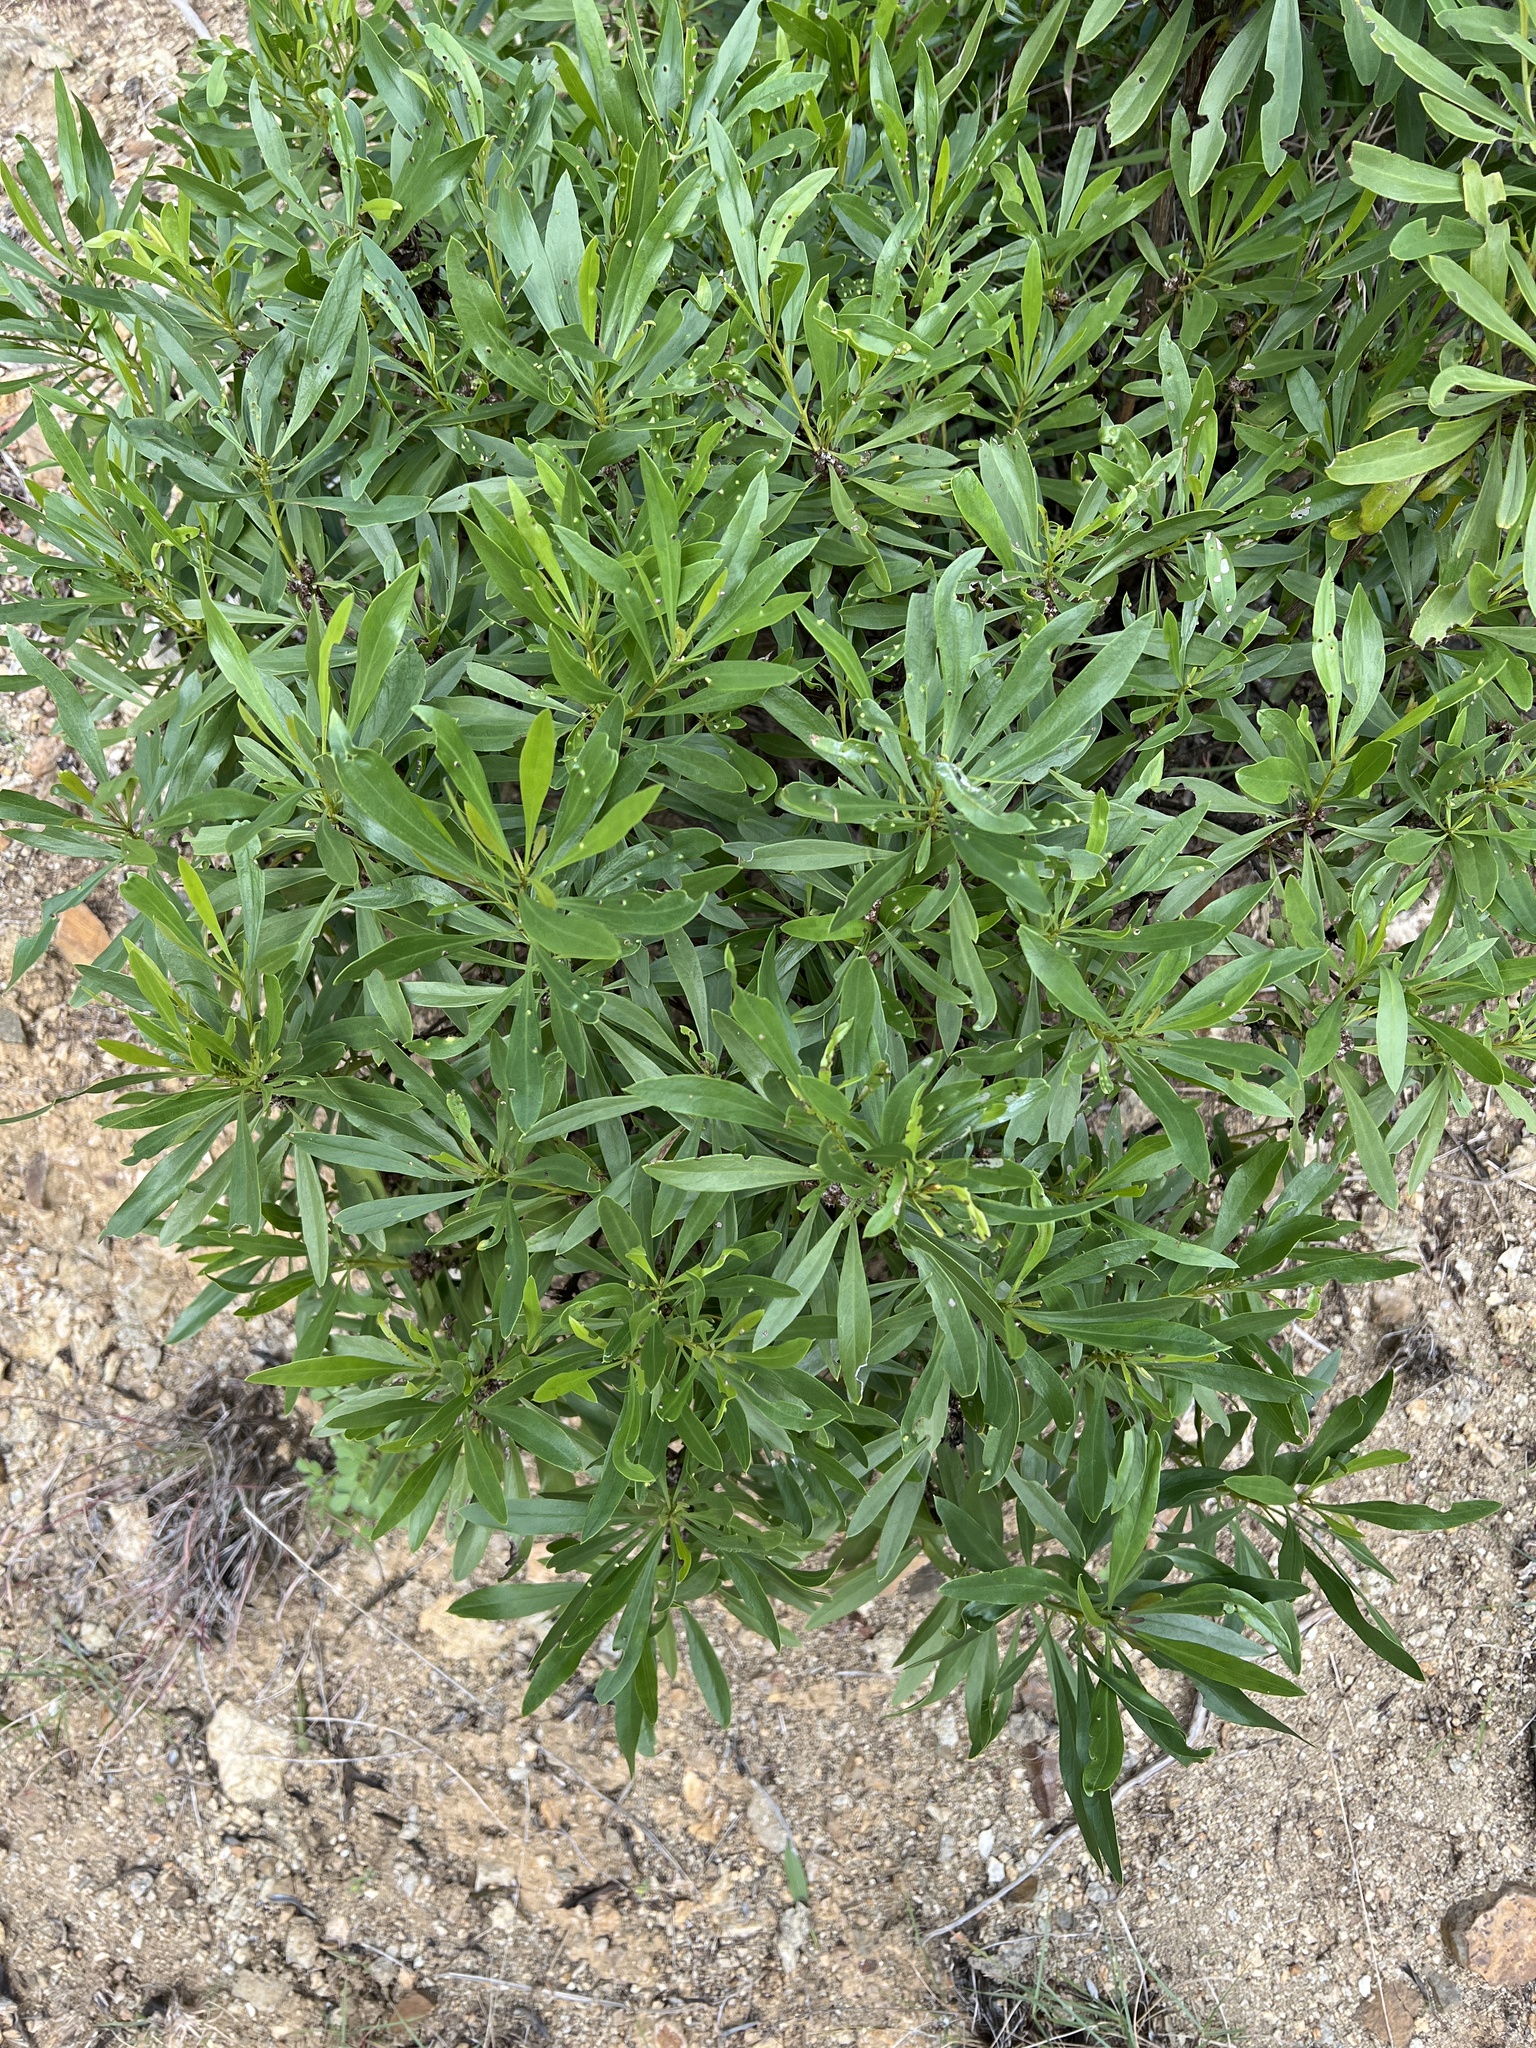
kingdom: Plantae
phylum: Tracheophyta
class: Magnoliopsida
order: Lamiales
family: Plantaginaceae
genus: Globularia
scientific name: Globularia salicina
